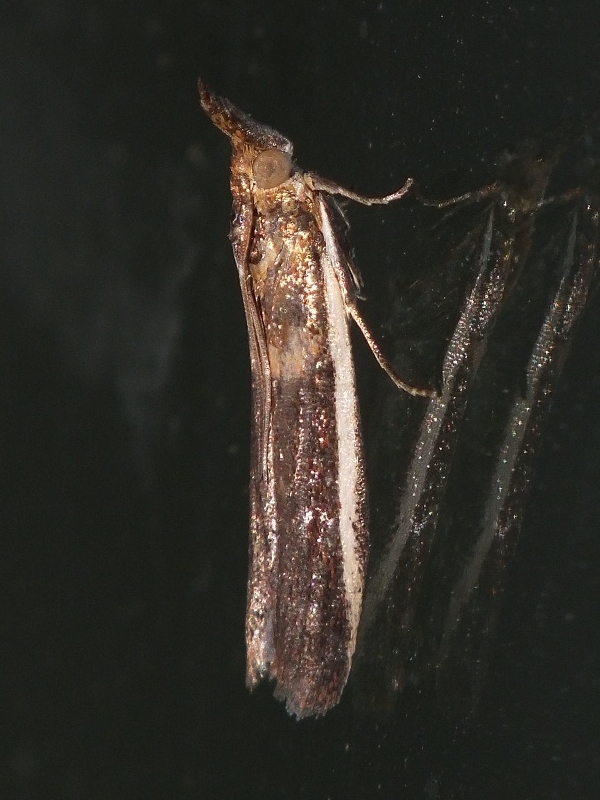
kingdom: Animalia
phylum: Arthropoda
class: Insecta
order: Lepidoptera
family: Pyralidae
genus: Etiella
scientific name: Etiella zinckenella
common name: Gold-banded etiella moth
